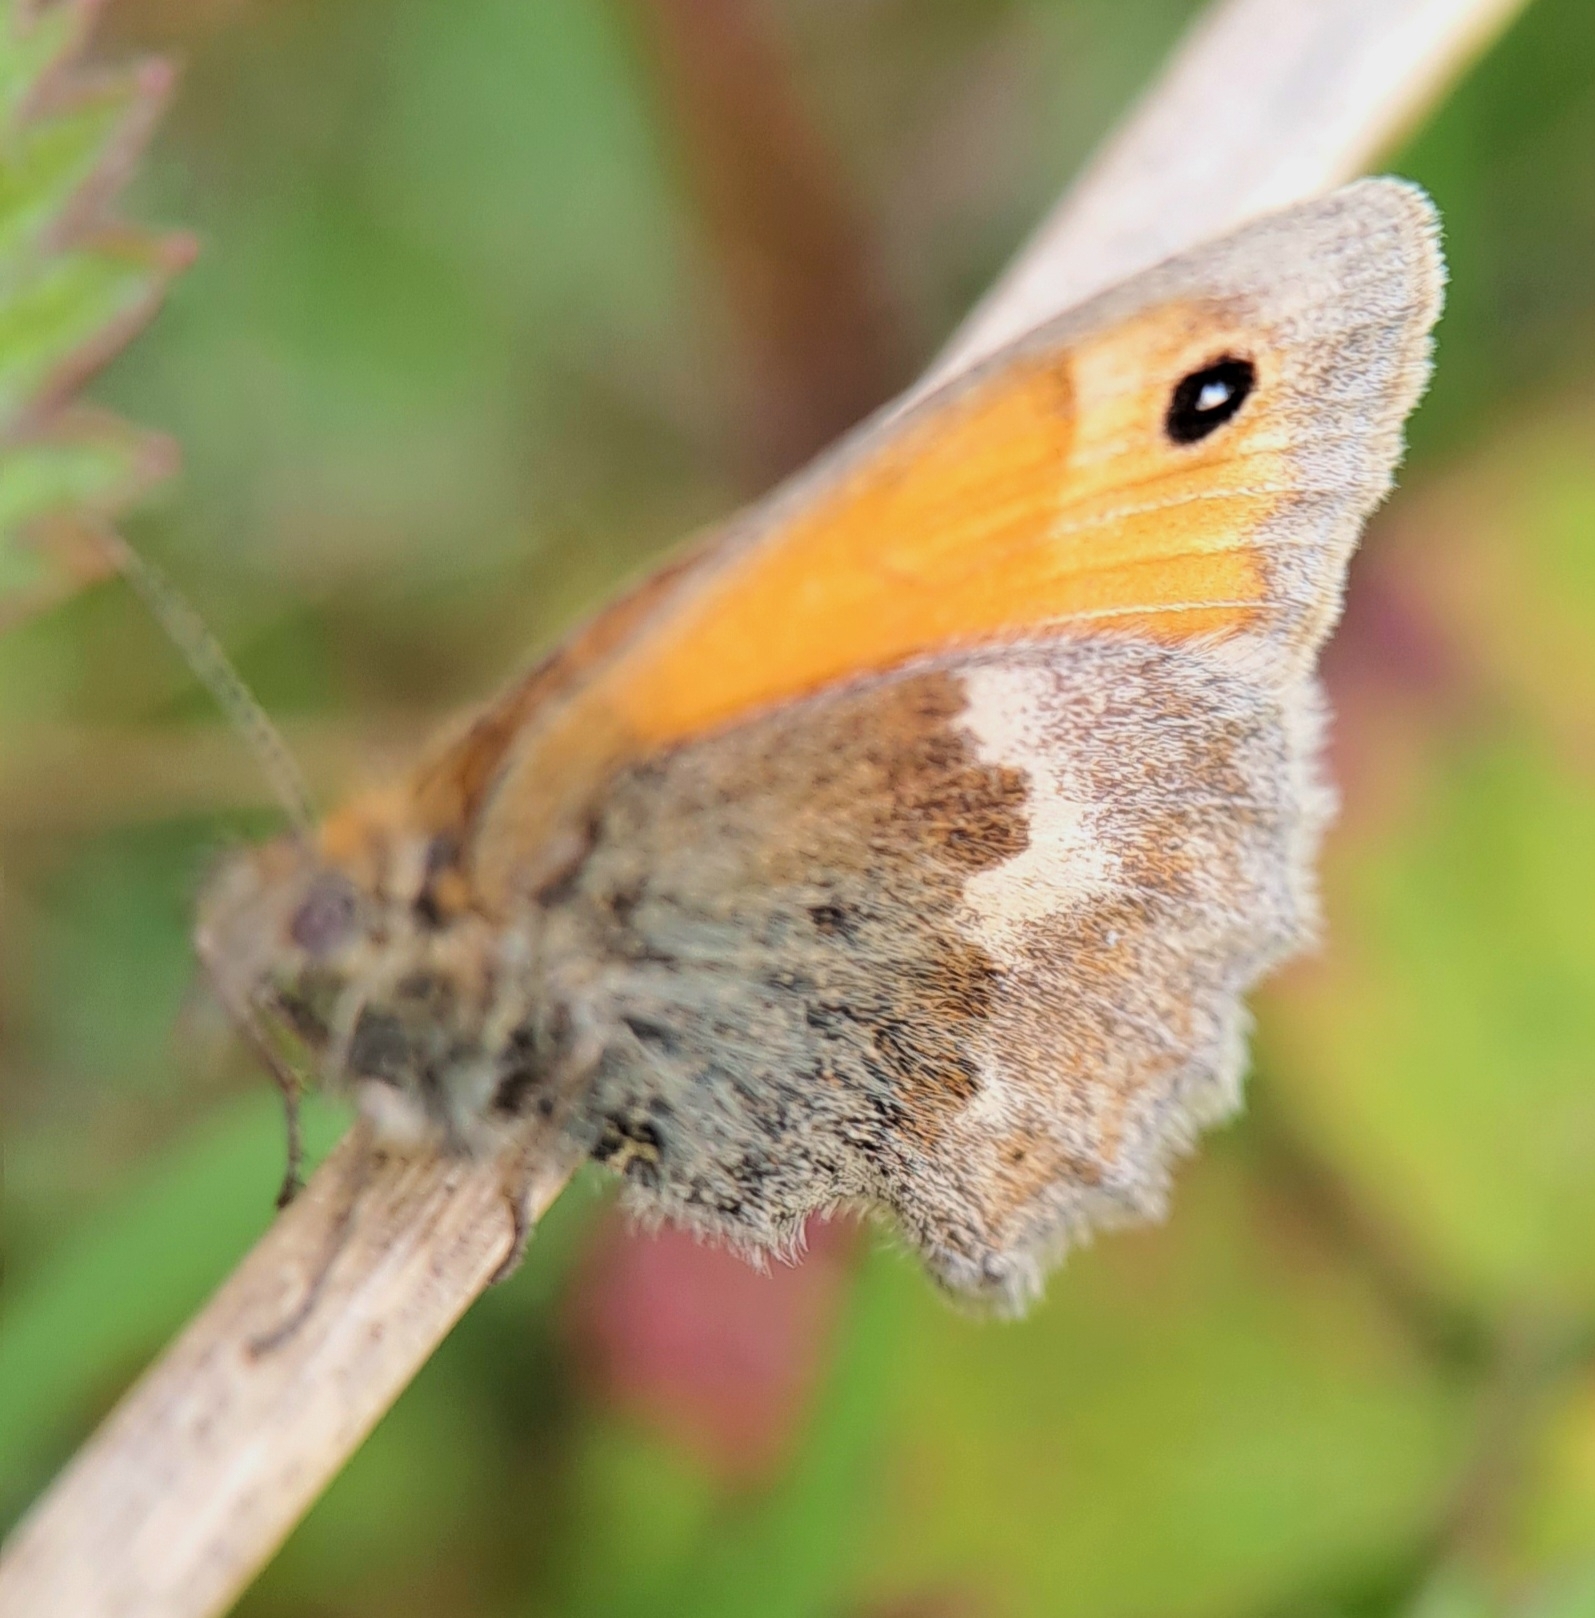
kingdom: Animalia
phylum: Arthropoda
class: Insecta
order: Lepidoptera
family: Nymphalidae
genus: Coenonympha
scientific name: Coenonympha pamphilus
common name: Small heath
